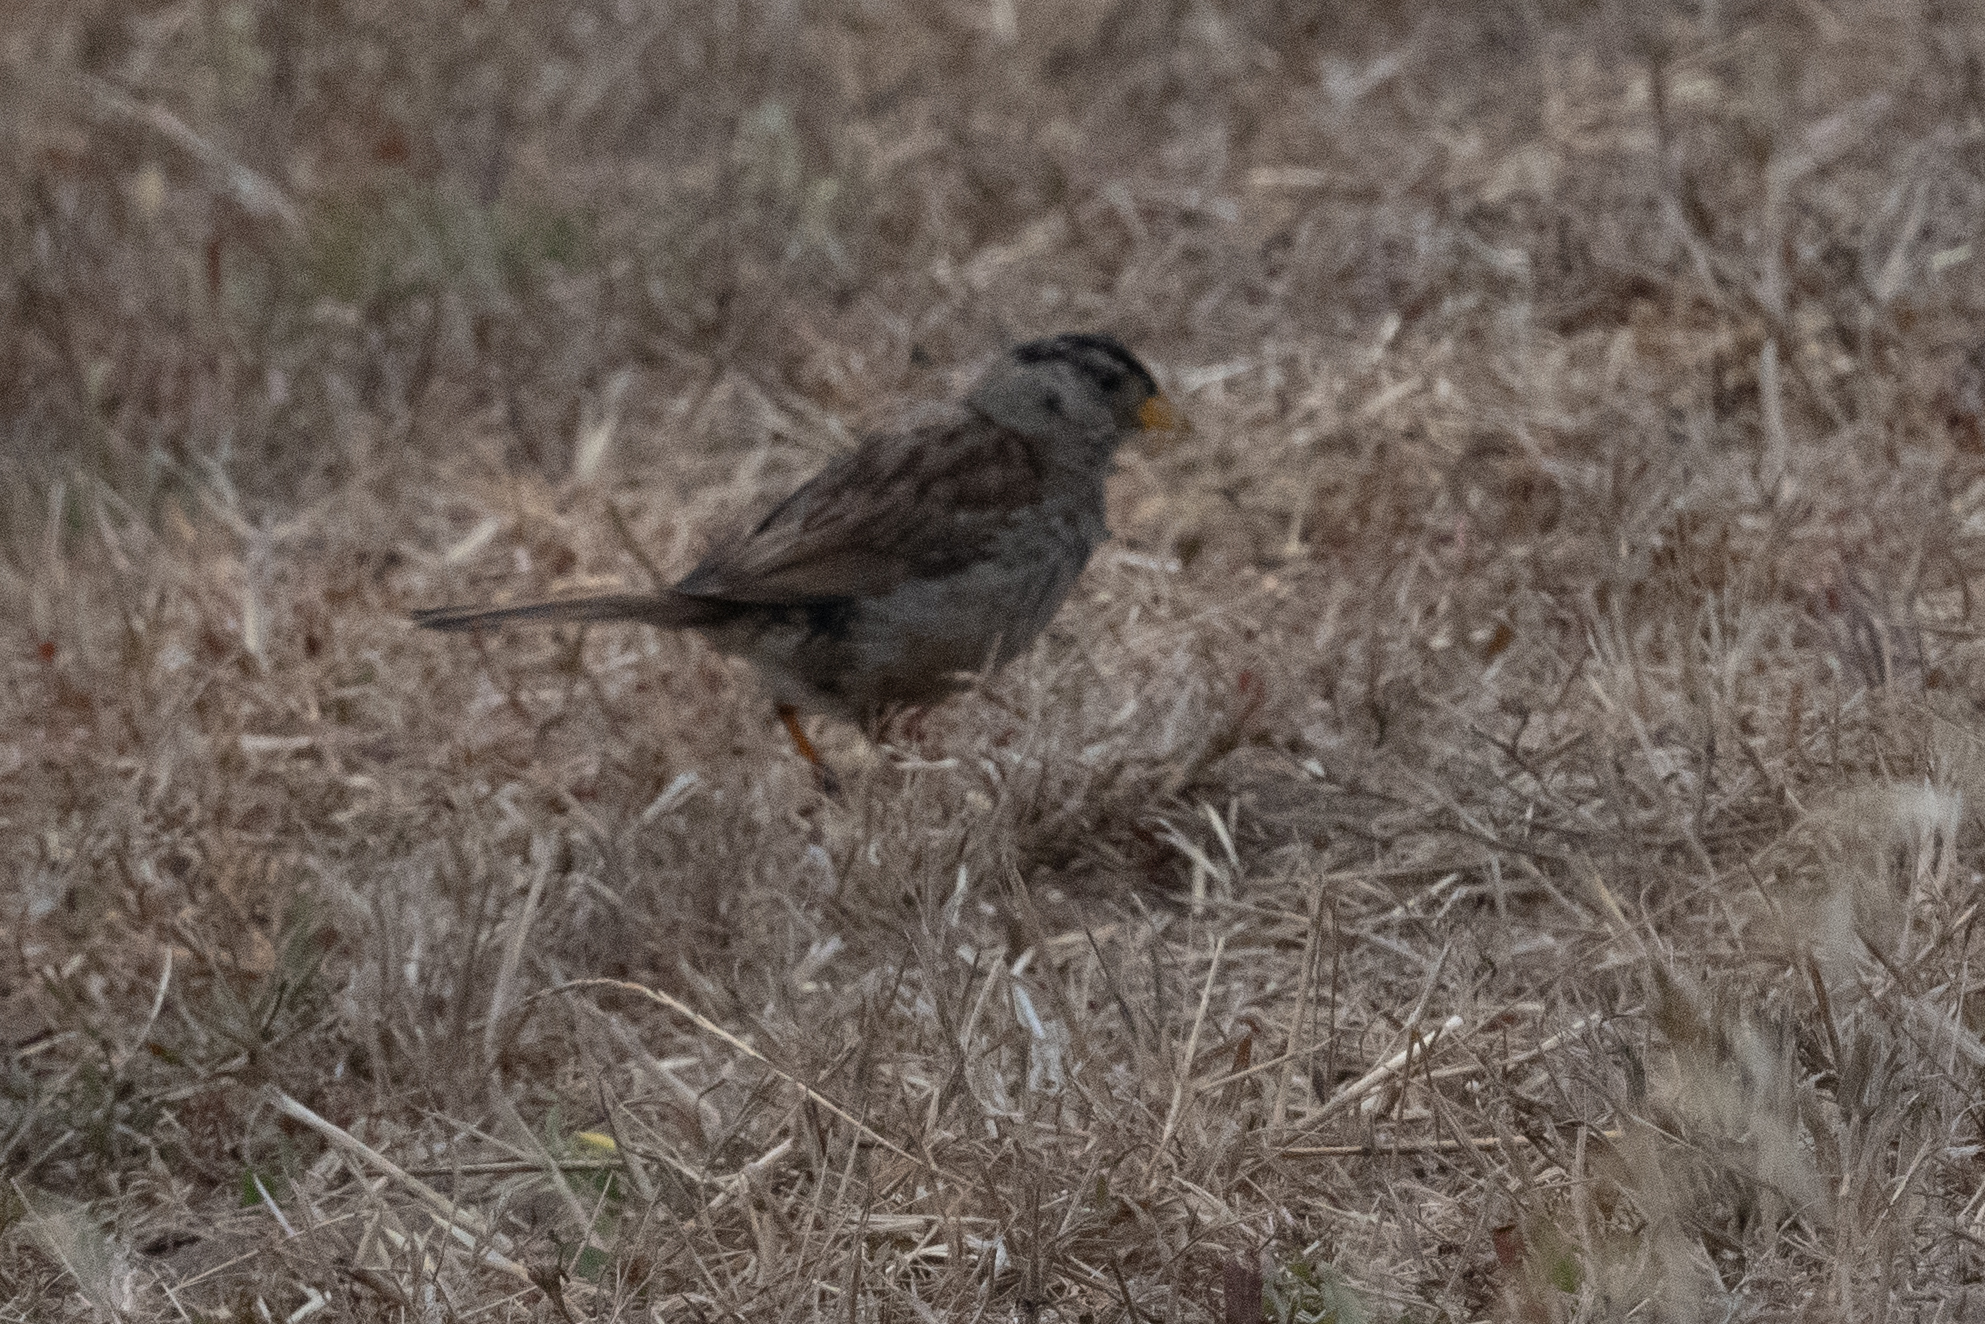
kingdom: Animalia
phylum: Chordata
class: Aves
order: Passeriformes
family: Passerellidae
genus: Zonotrichia
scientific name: Zonotrichia leucophrys
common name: White-crowned sparrow
